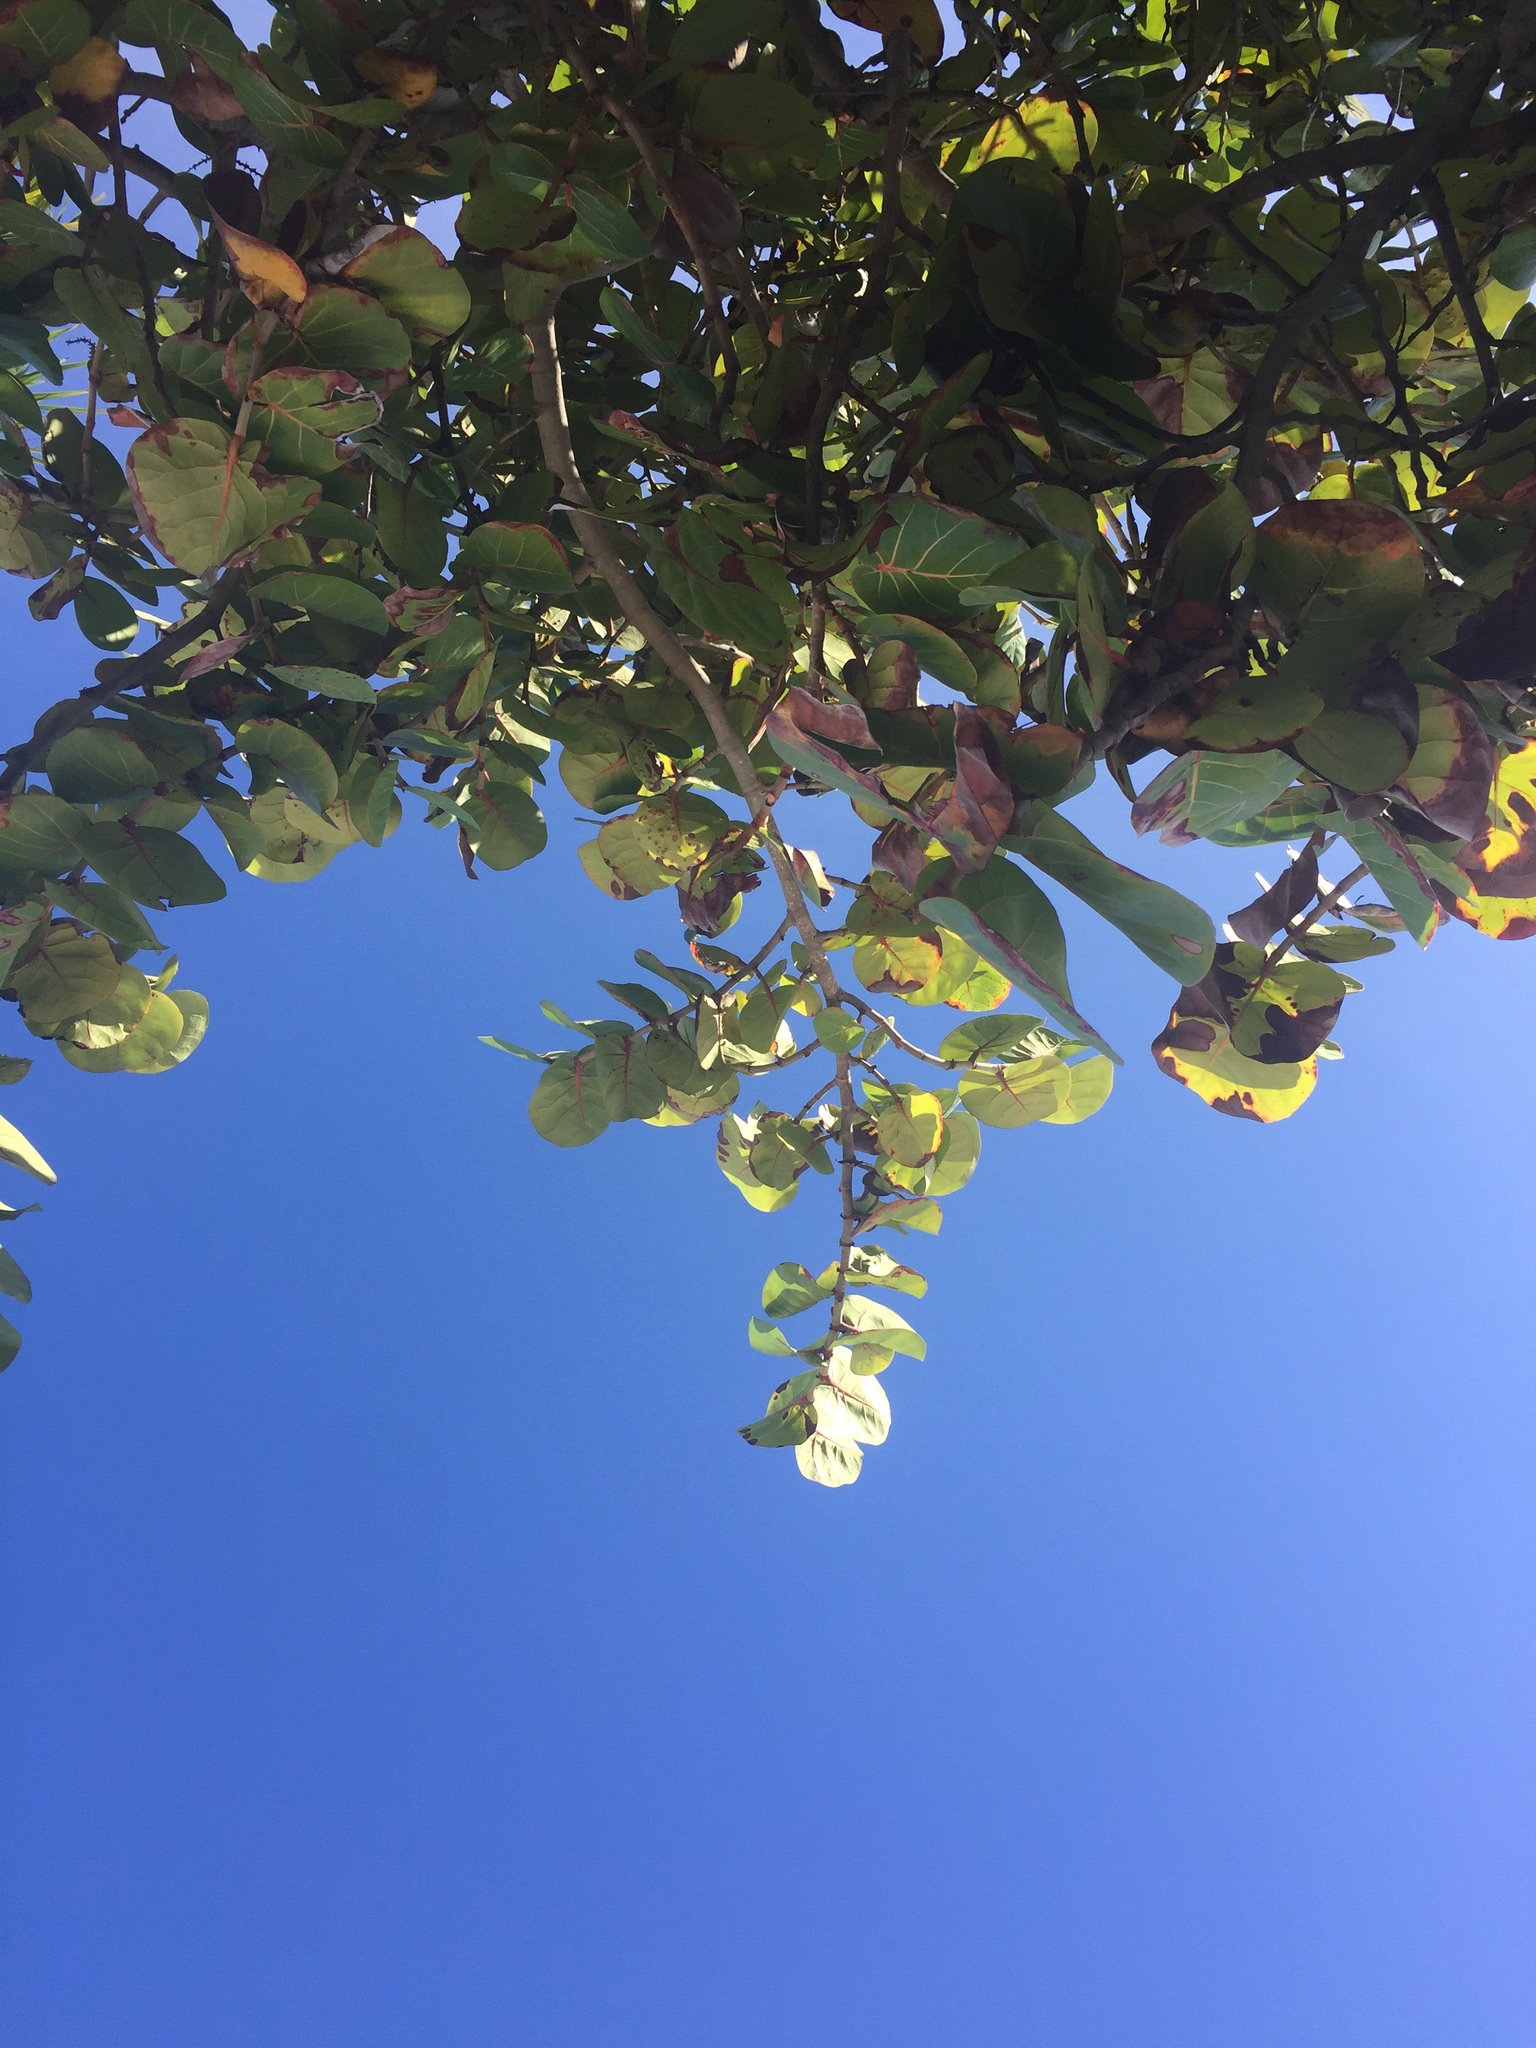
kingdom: Plantae
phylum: Tracheophyta
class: Magnoliopsida
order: Caryophyllales
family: Polygonaceae
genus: Coccoloba
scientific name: Coccoloba uvifera
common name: Seagrape
